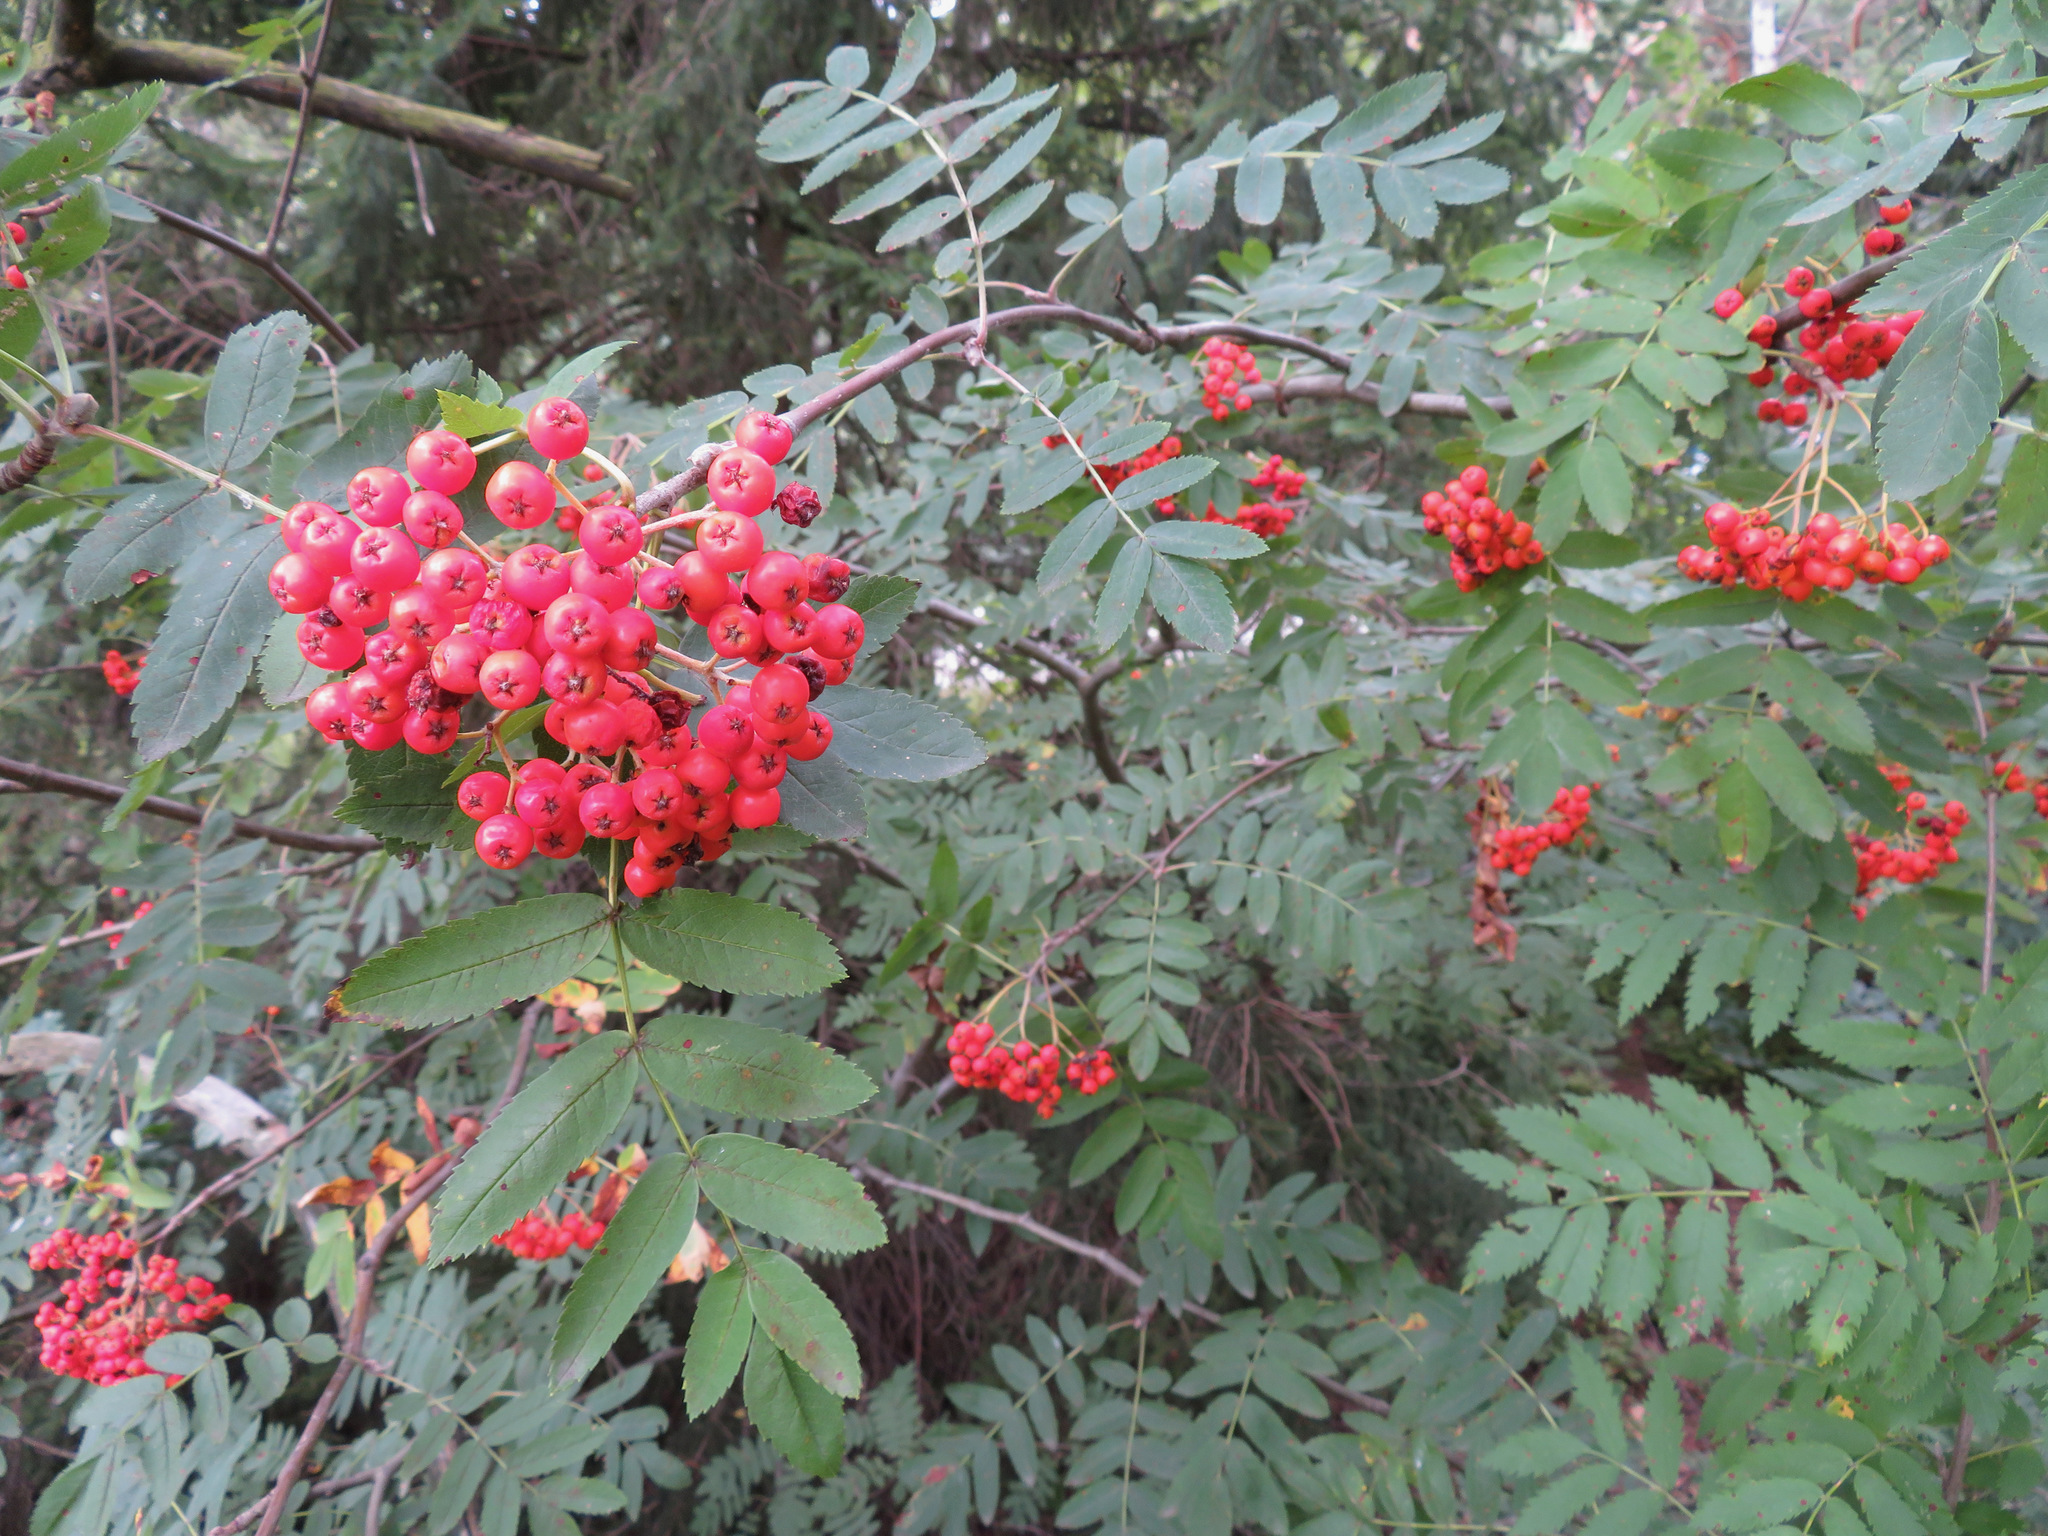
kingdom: Plantae
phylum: Tracheophyta
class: Magnoliopsida
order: Rosales
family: Rosaceae
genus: Sorbus
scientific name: Sorbus aucuparia
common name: Rowan
